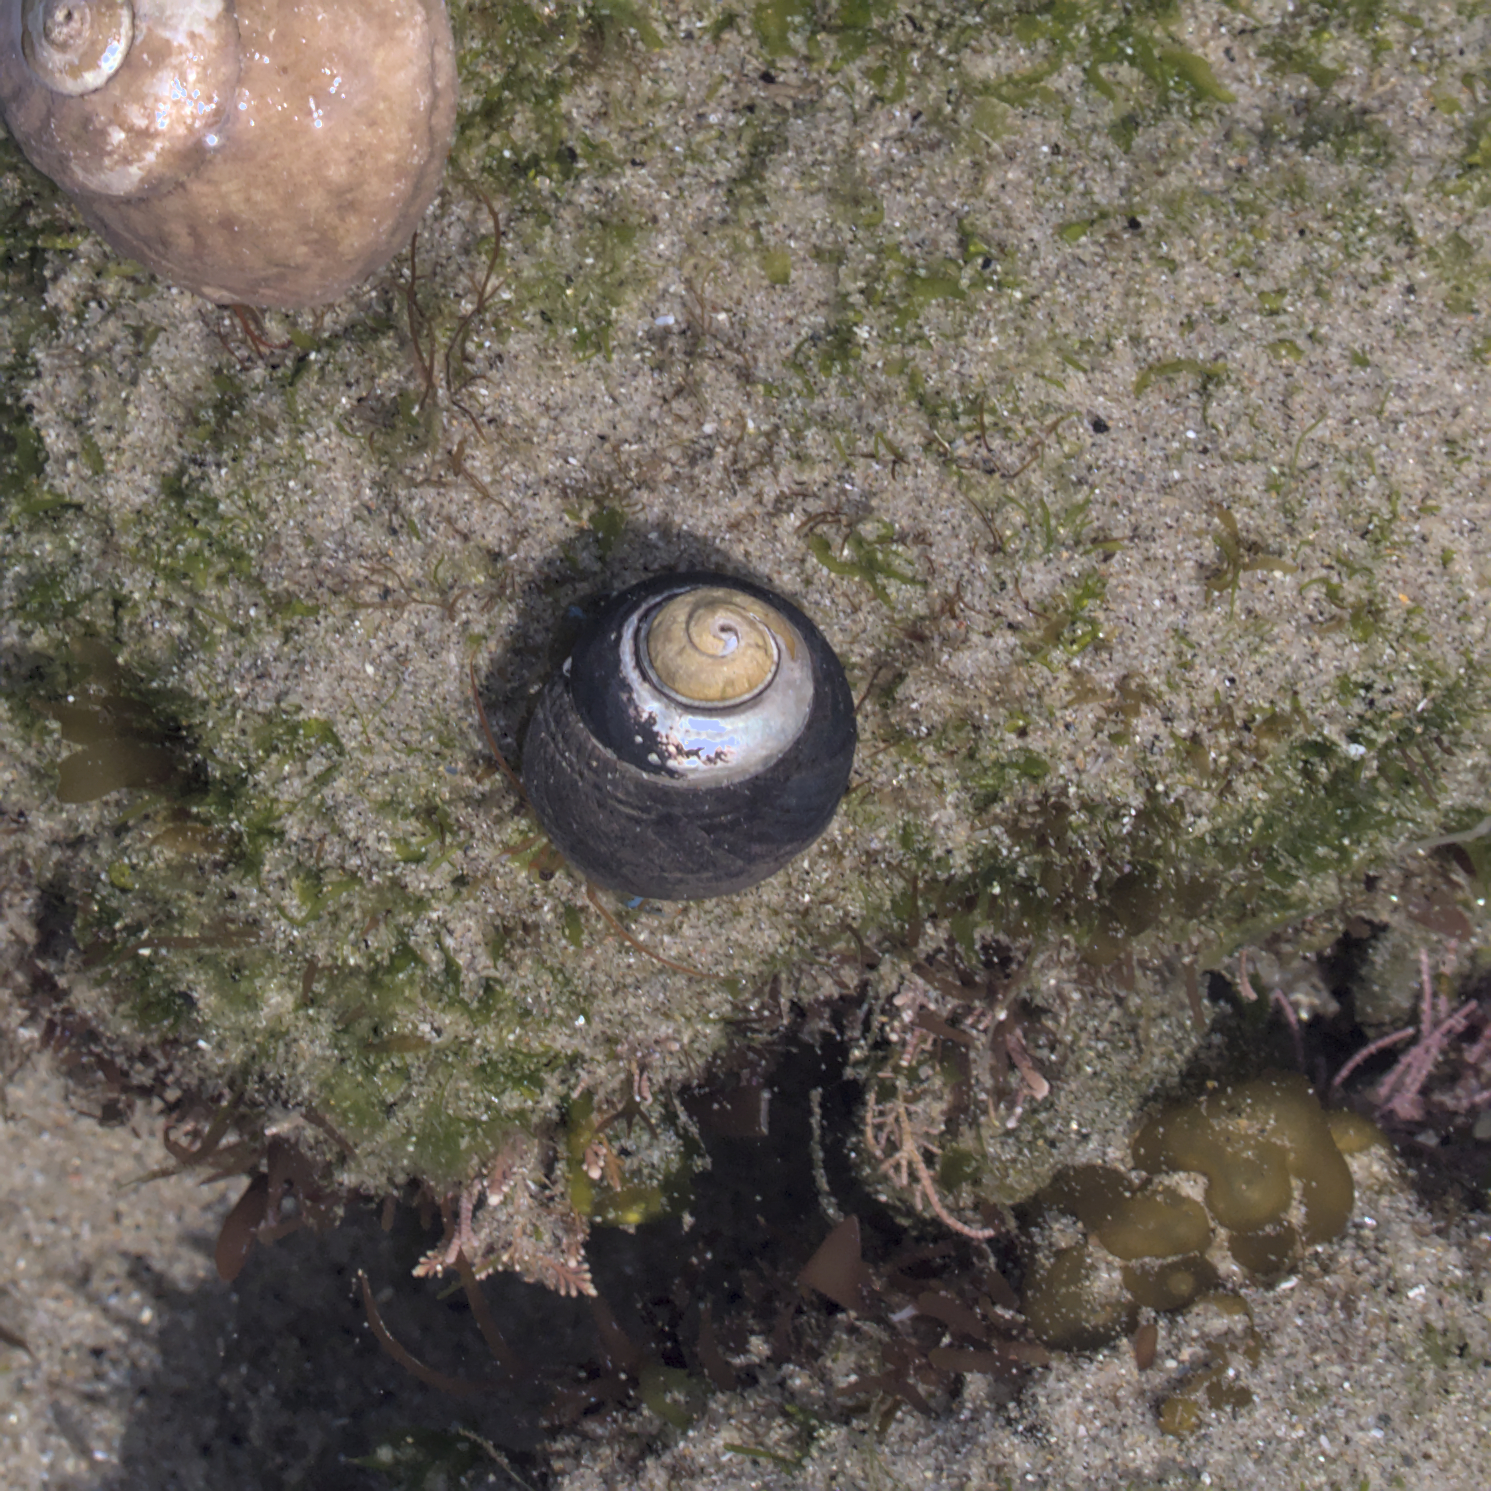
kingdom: Animalia
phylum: Mollusca
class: Gastropoda
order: Trochida
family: Tegulidae
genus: Tegula
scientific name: Tegula funebralis
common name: Black tegula
